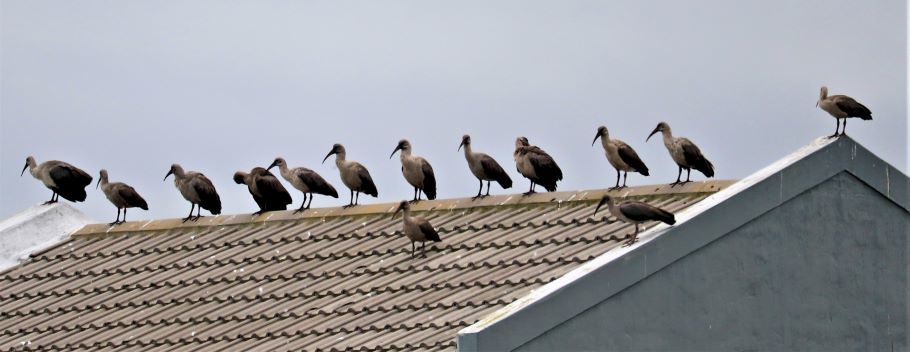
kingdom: Animalia
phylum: Chordata
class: Aves
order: Pelecaniformes
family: Threskiornithidae
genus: Bostrychia
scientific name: Bostrychia hagedash
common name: Hadada ibis
